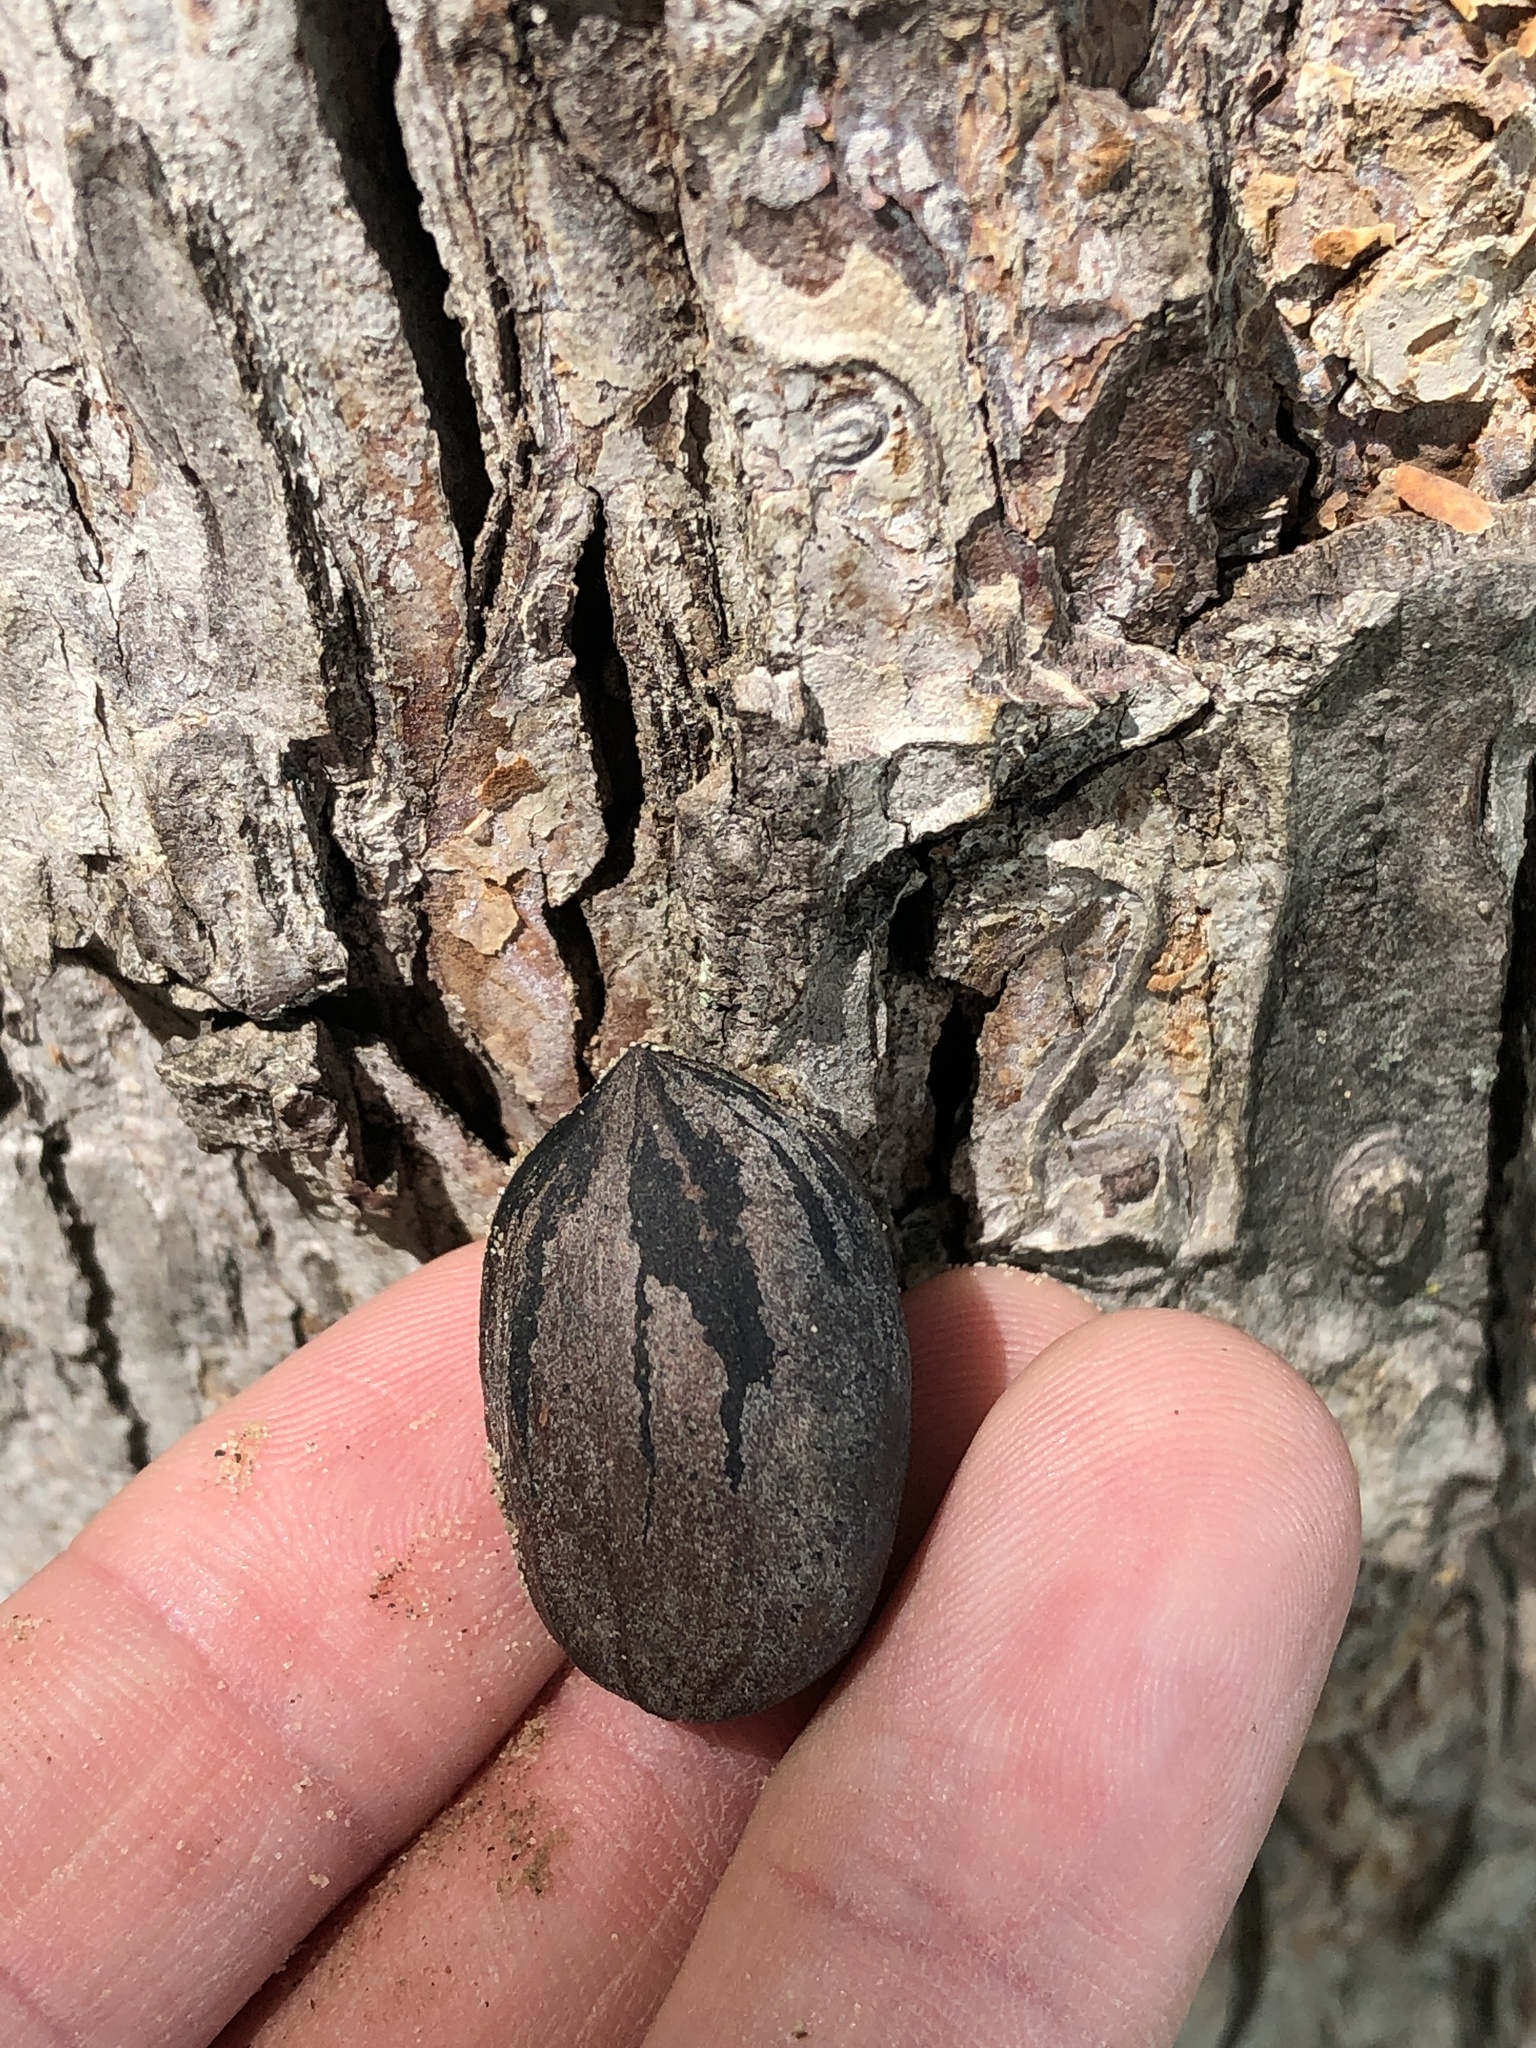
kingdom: Plantae
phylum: Tracheophyta
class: Magnoliopsida
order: Fagales
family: Juglandaceae
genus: Carya
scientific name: Carya illinoinensis
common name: Pecan
